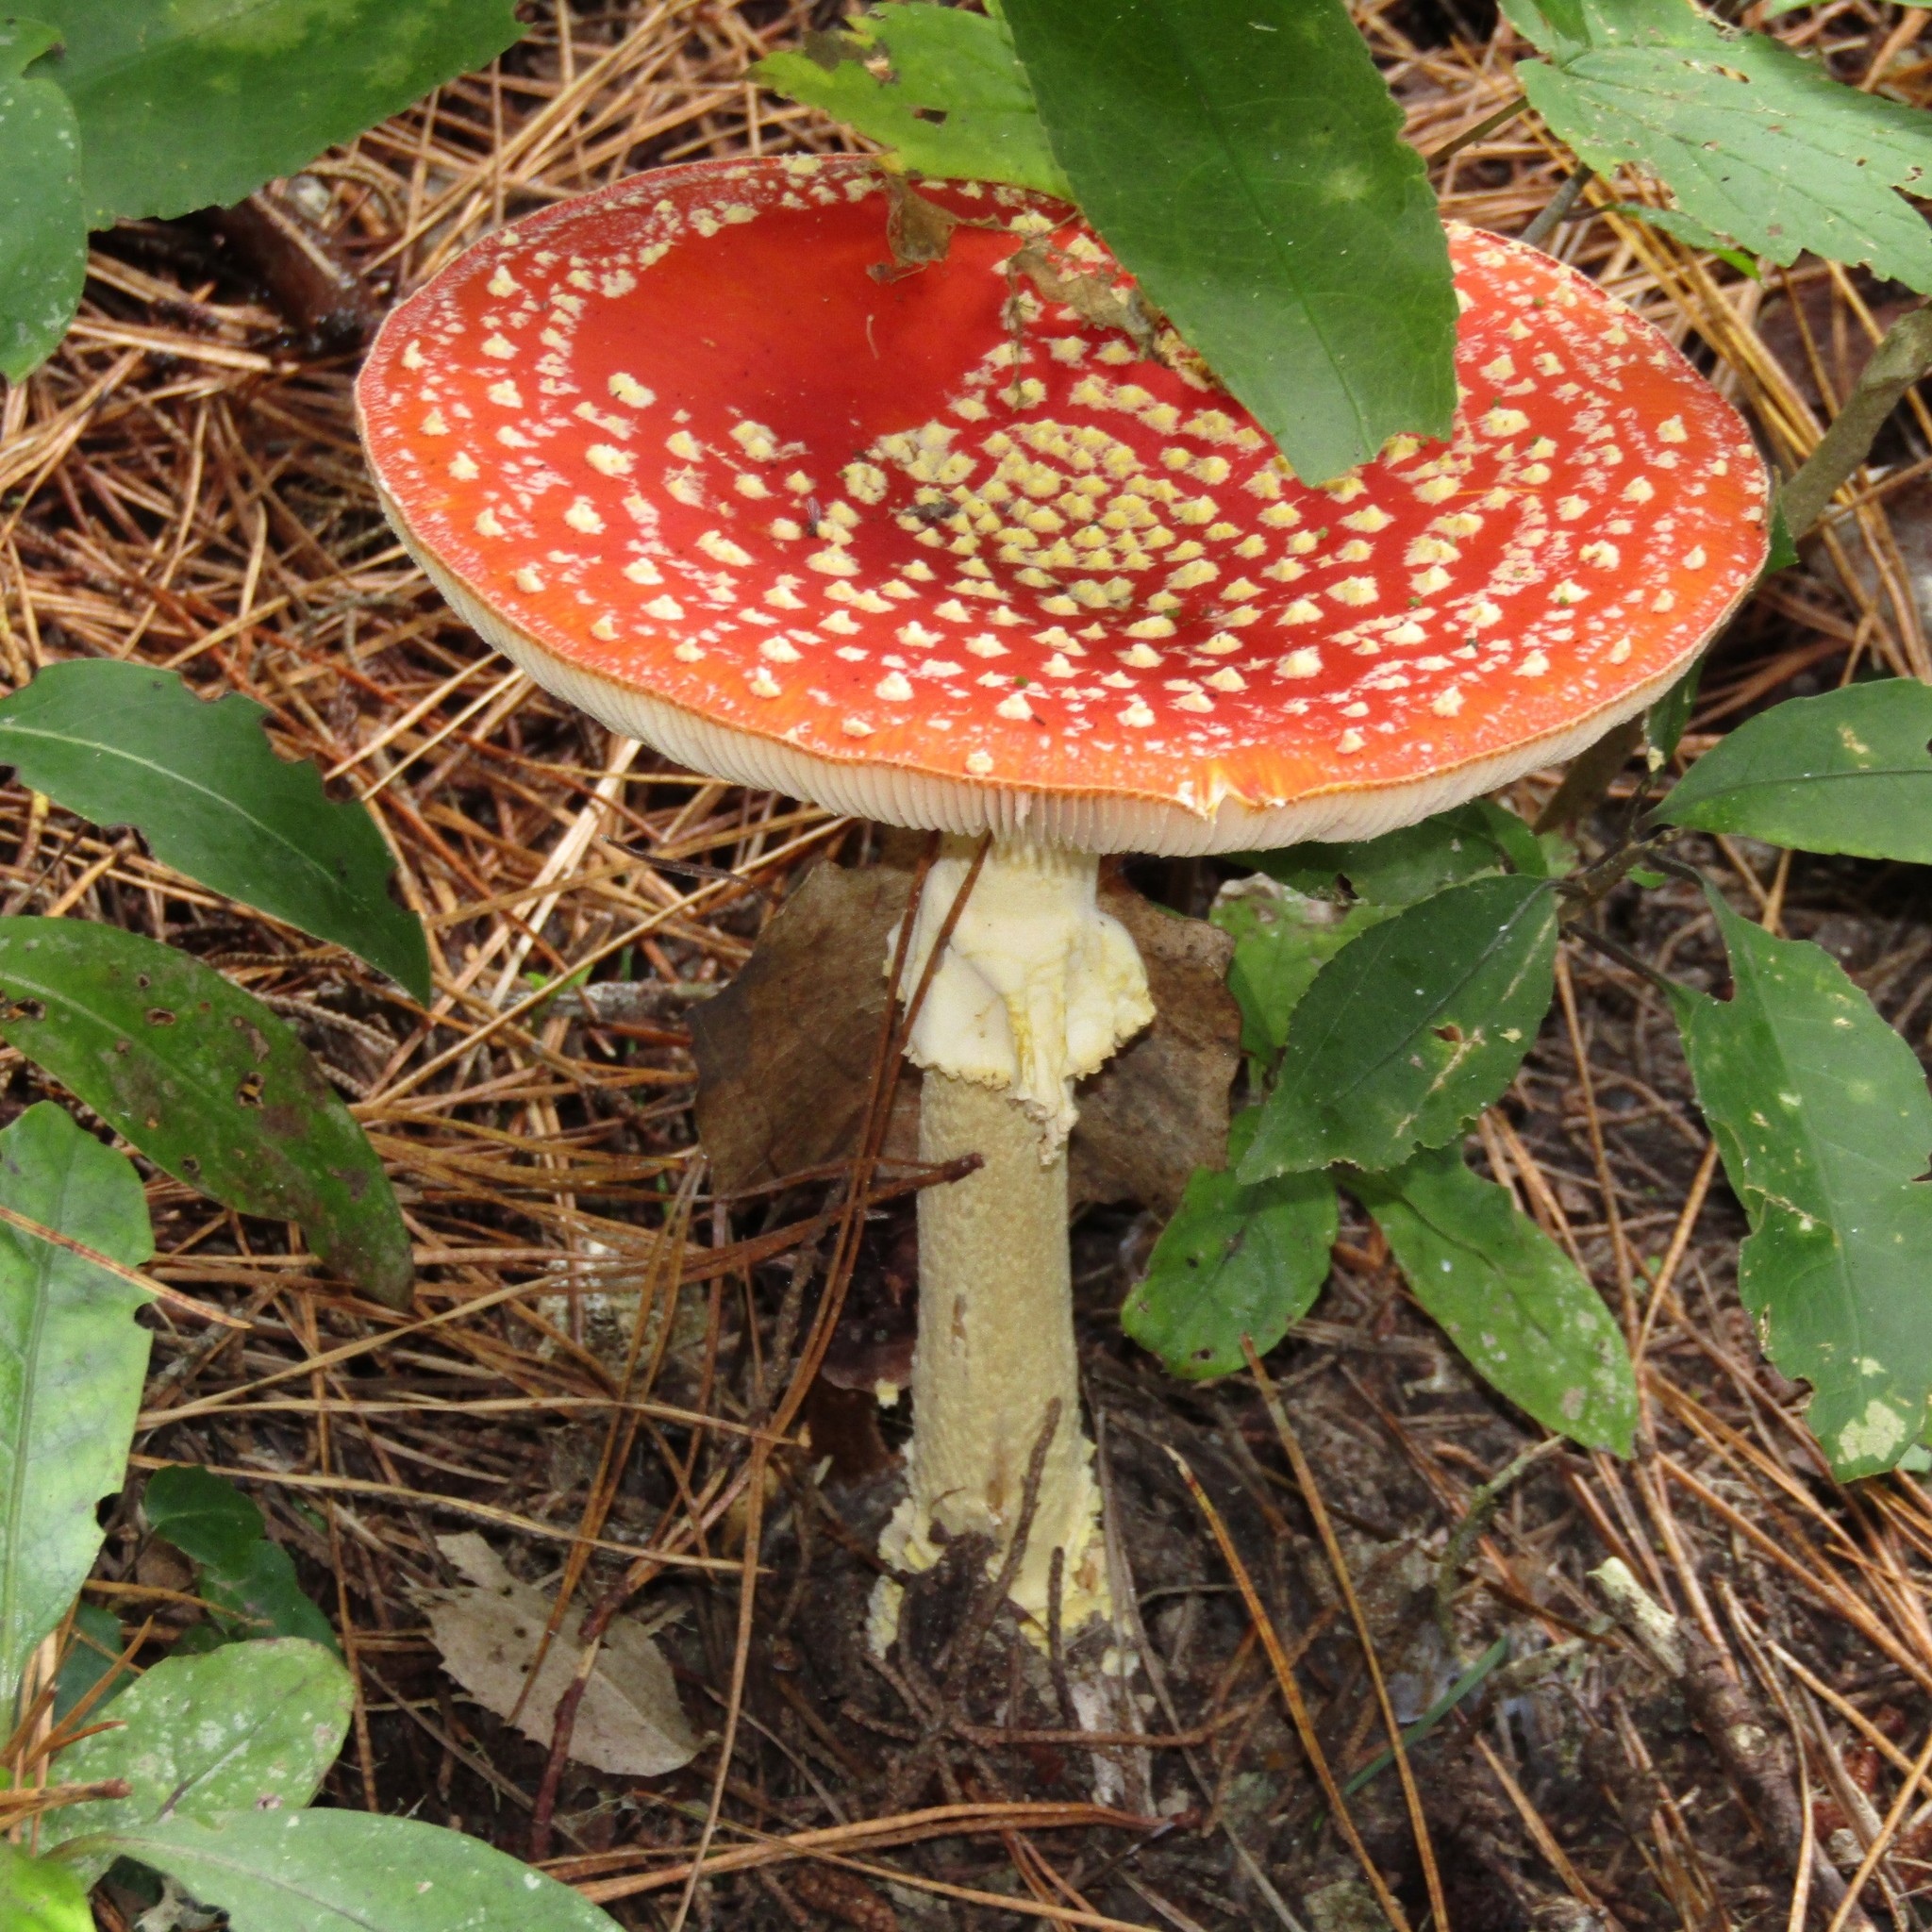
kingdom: Fungi
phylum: Basidiomycota
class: Agaricomycetes
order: Agaricales
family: Amanitaceae
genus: Amanita
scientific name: Amanita muscaria
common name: Fly agaric
